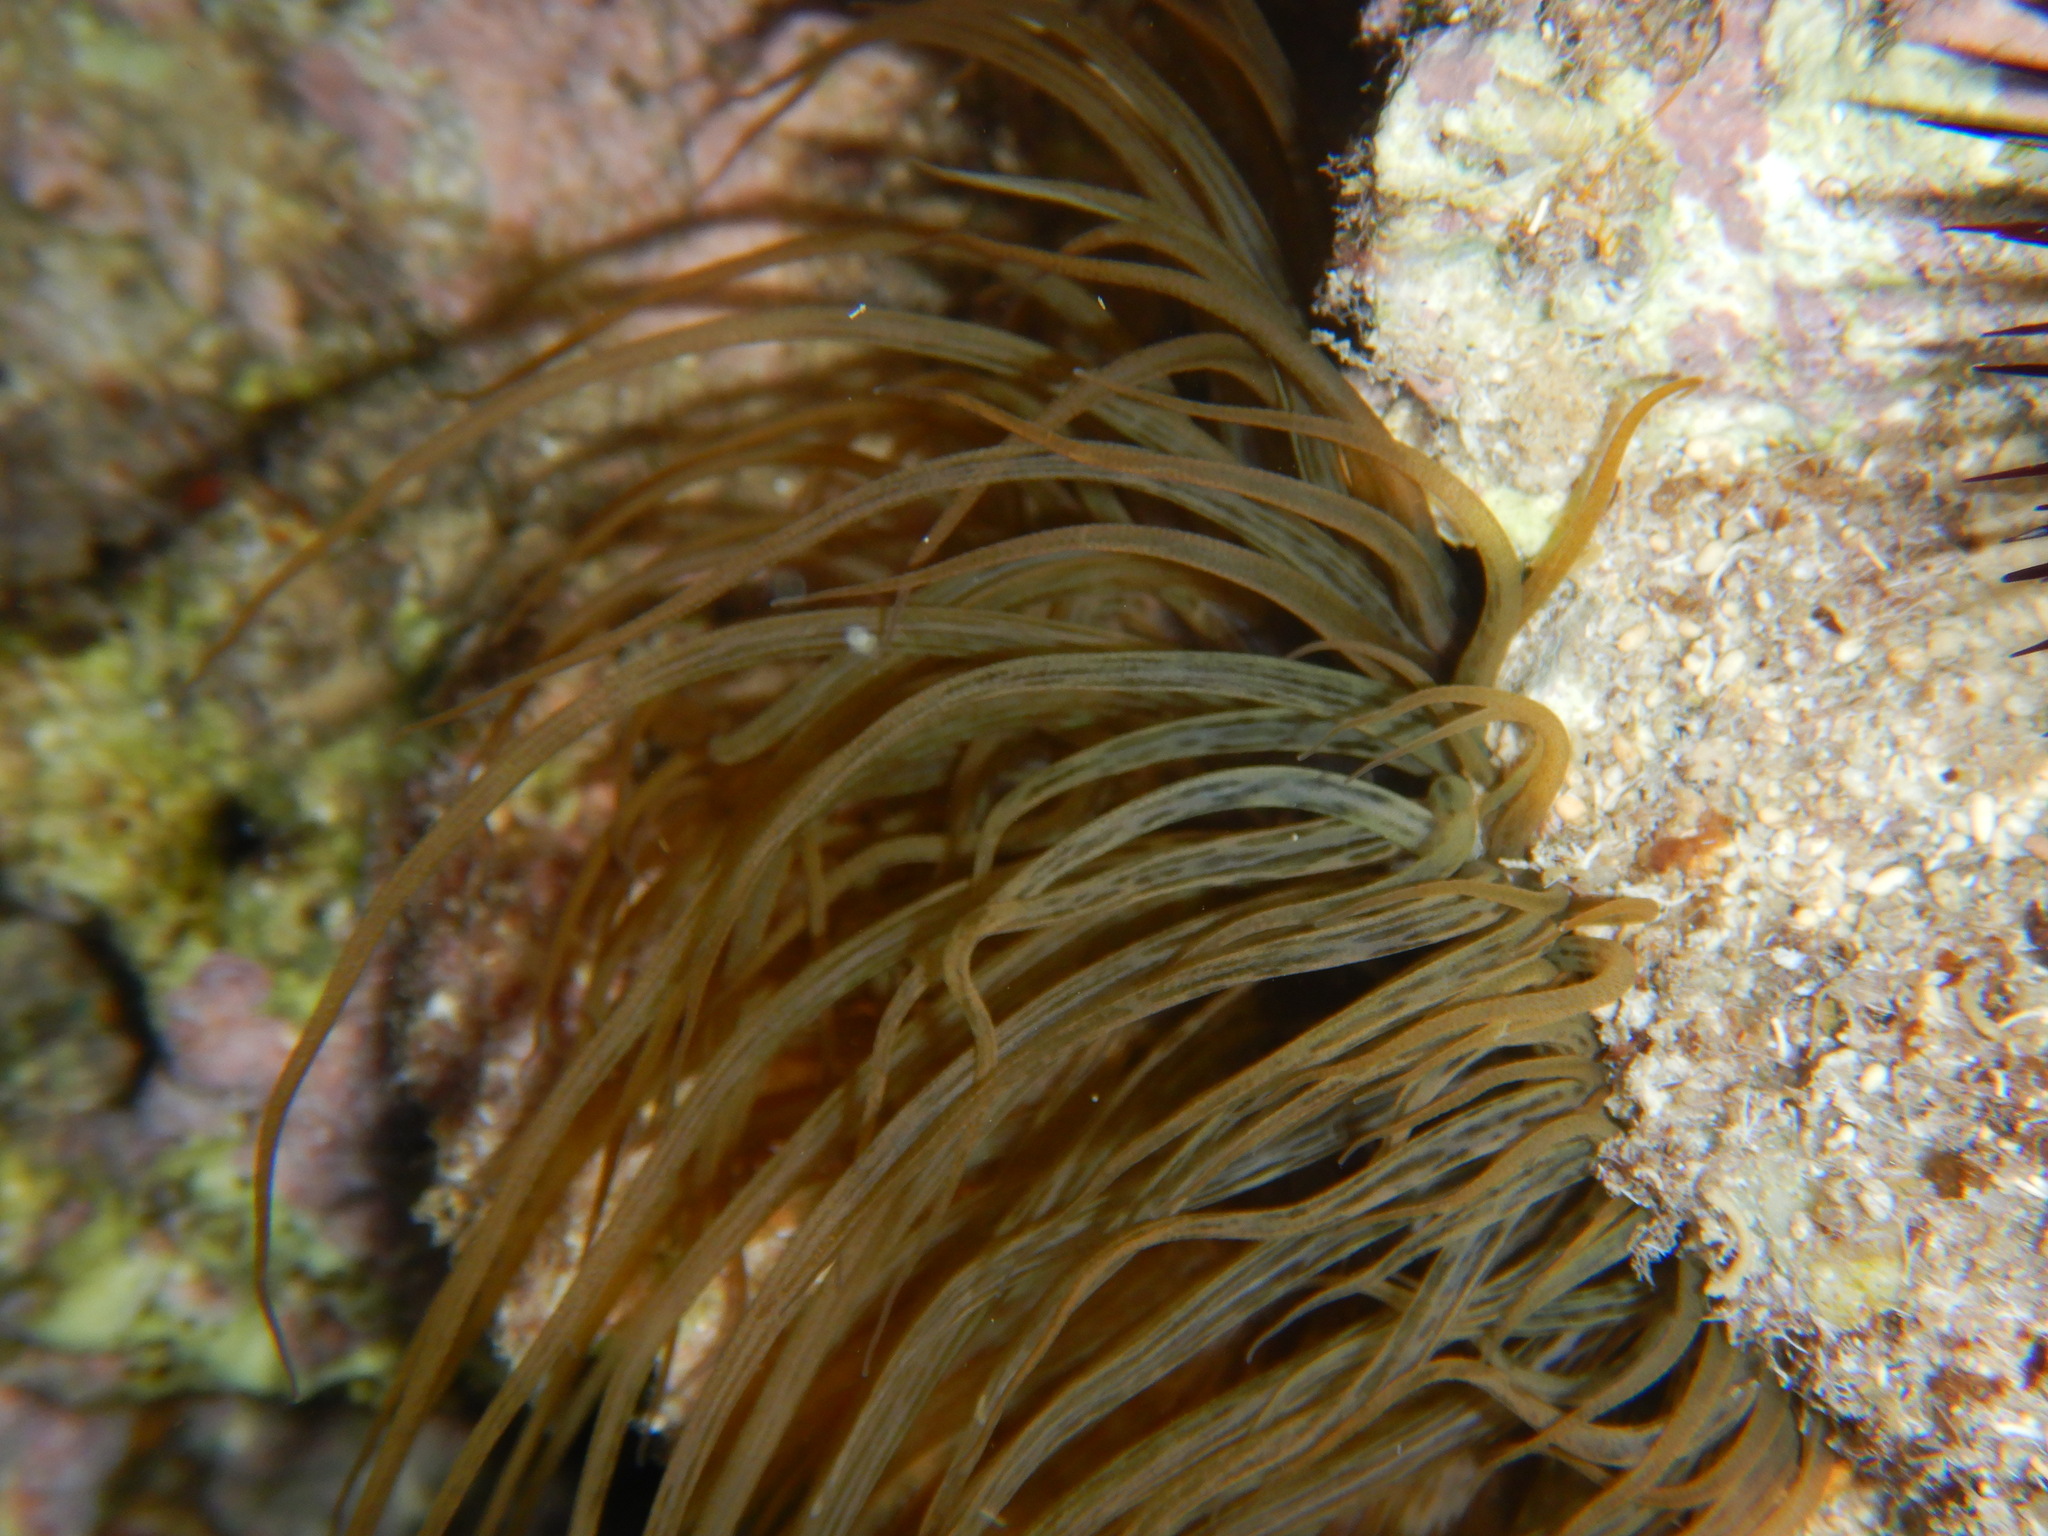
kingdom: Animalia
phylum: Cnidaria
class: Anthozoa
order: Actiniaria
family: Aiptasiidae
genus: Aiptasia
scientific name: Aiptasia mutabilis
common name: Trumpet anemone
